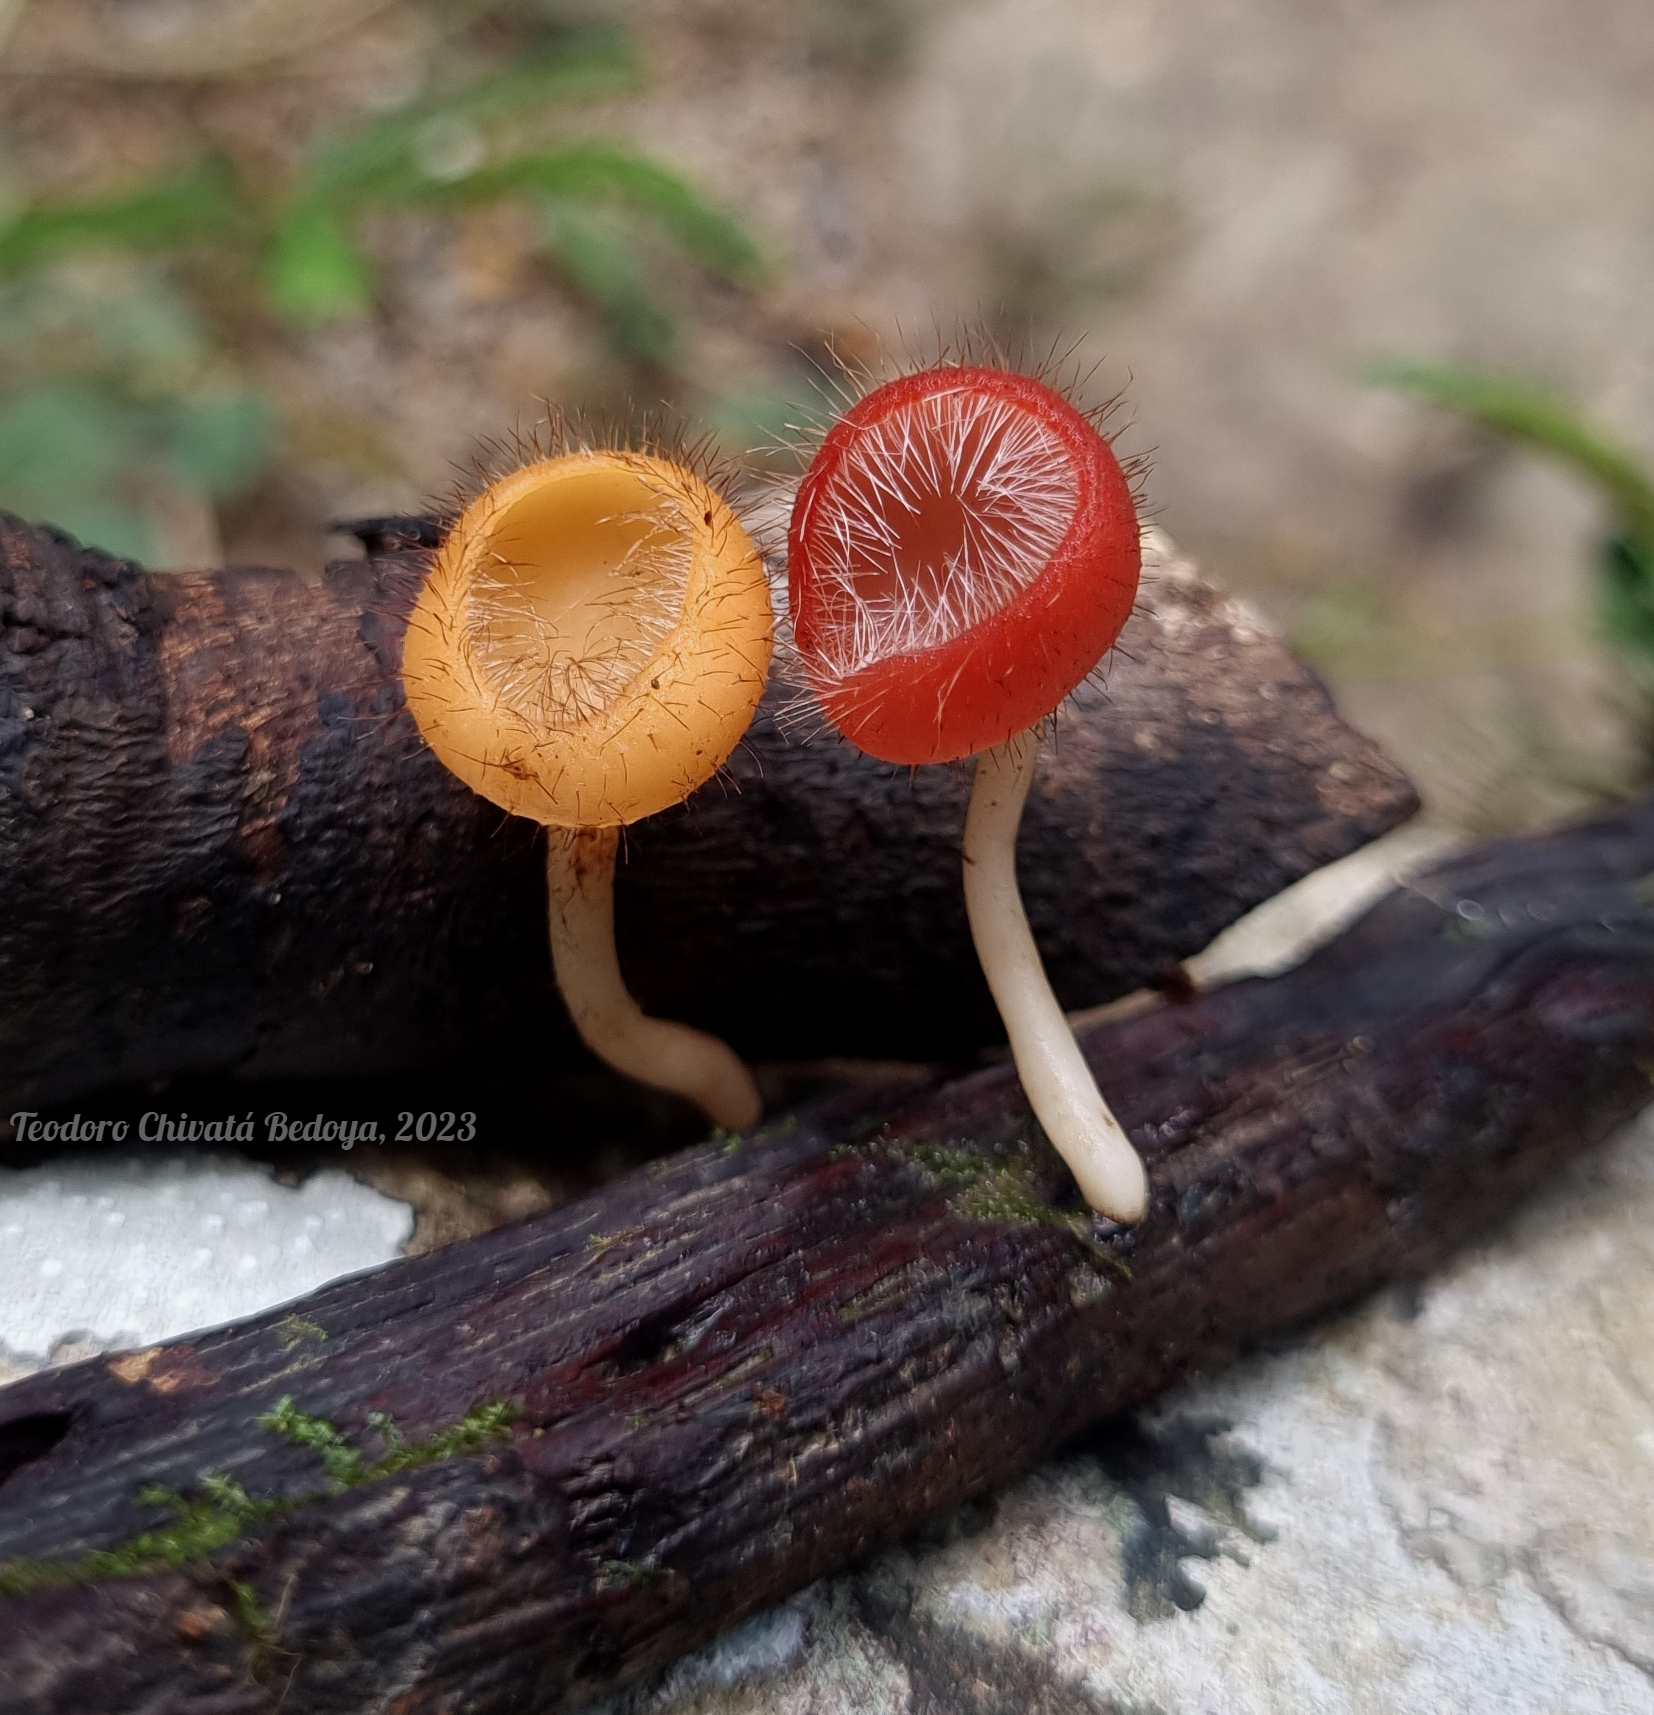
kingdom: Fungi
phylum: Ascomycota
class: Pezizomycetes
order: Pezizales
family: Sarcoscyphaceae
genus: Cookeina
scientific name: Cookeina tricholoma
